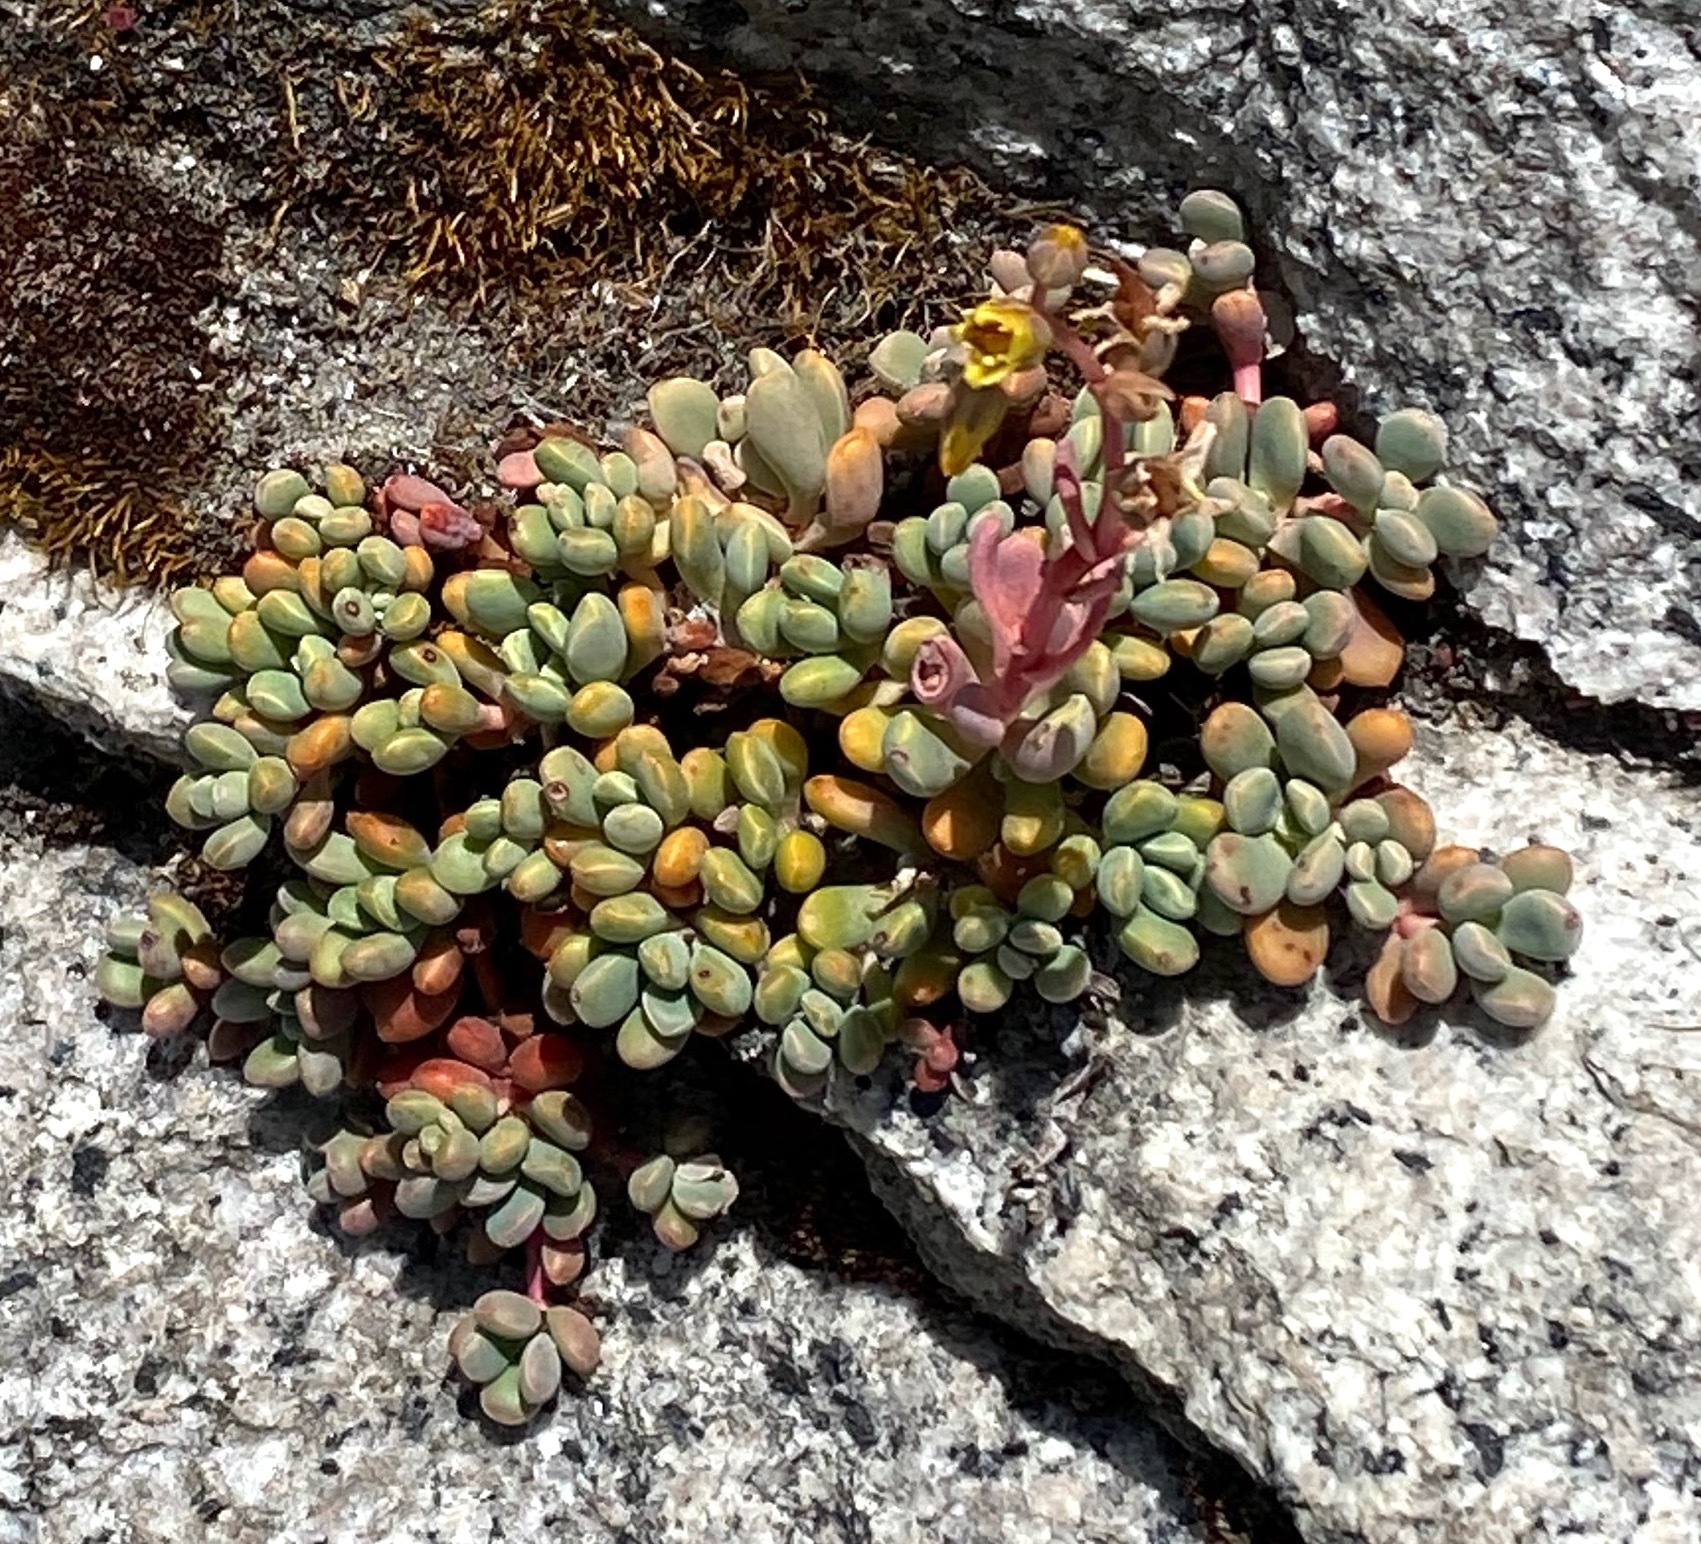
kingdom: Plantae
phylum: Tracheophyta
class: Magnoliopsida
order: Saxifragales
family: Crassulaceae
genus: Sedum
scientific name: Sedum obtusatum
